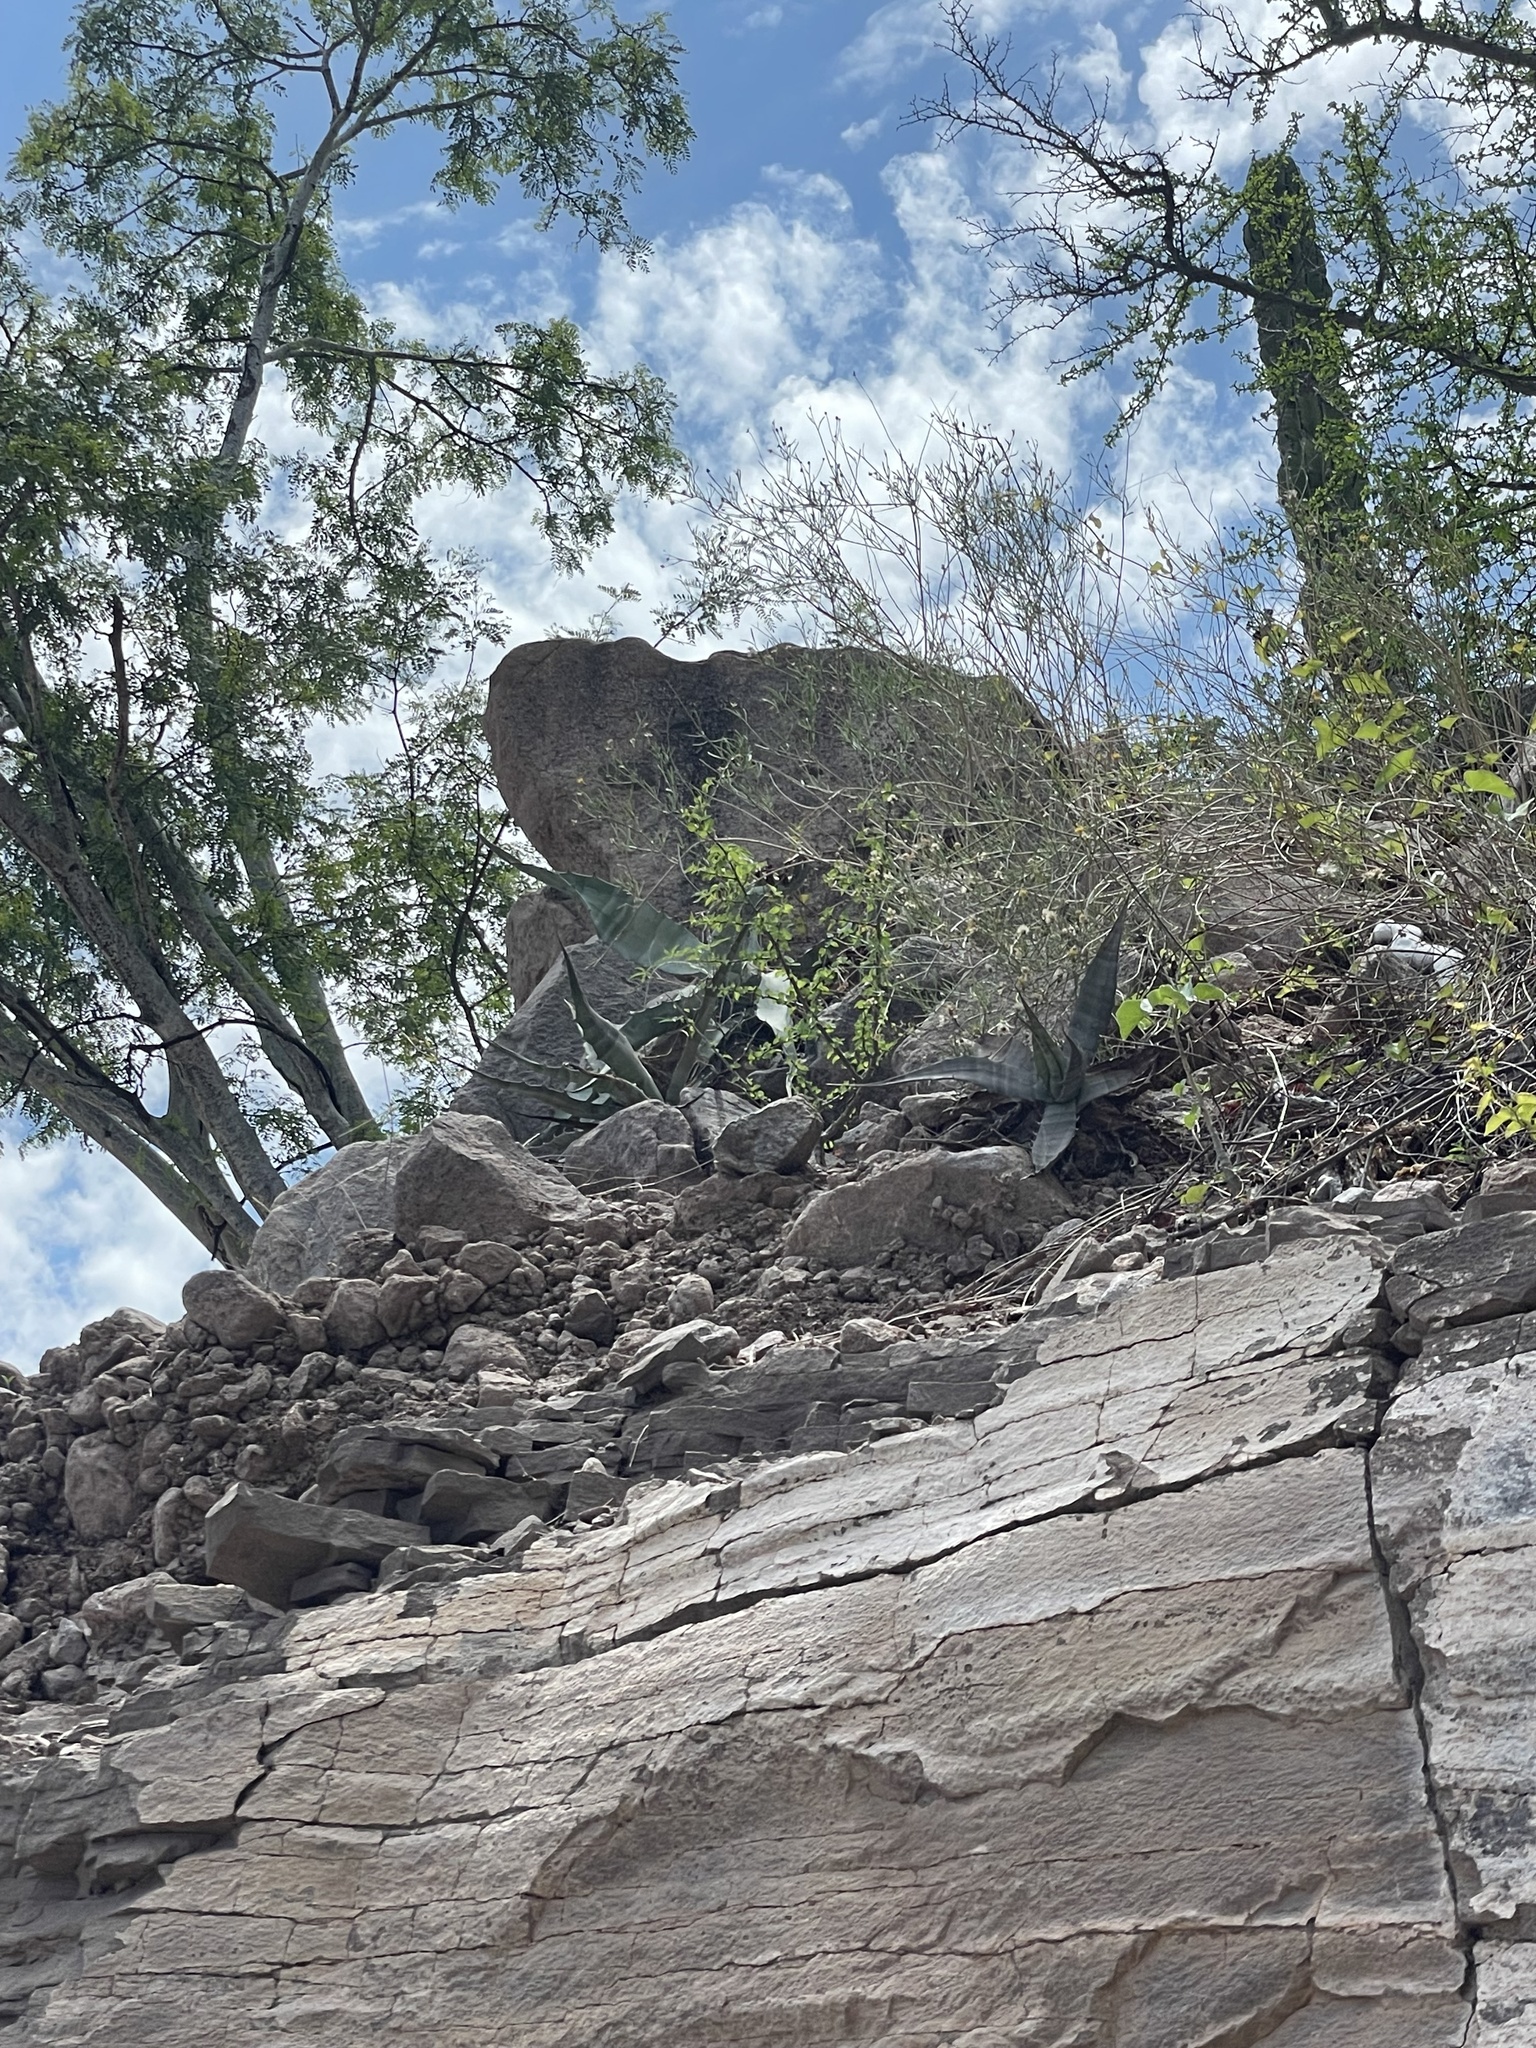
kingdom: Plantae
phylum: Tracheophyta
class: Liliopsida
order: Asparagales
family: Asparagaceae
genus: Agave
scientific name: Agave sobria
